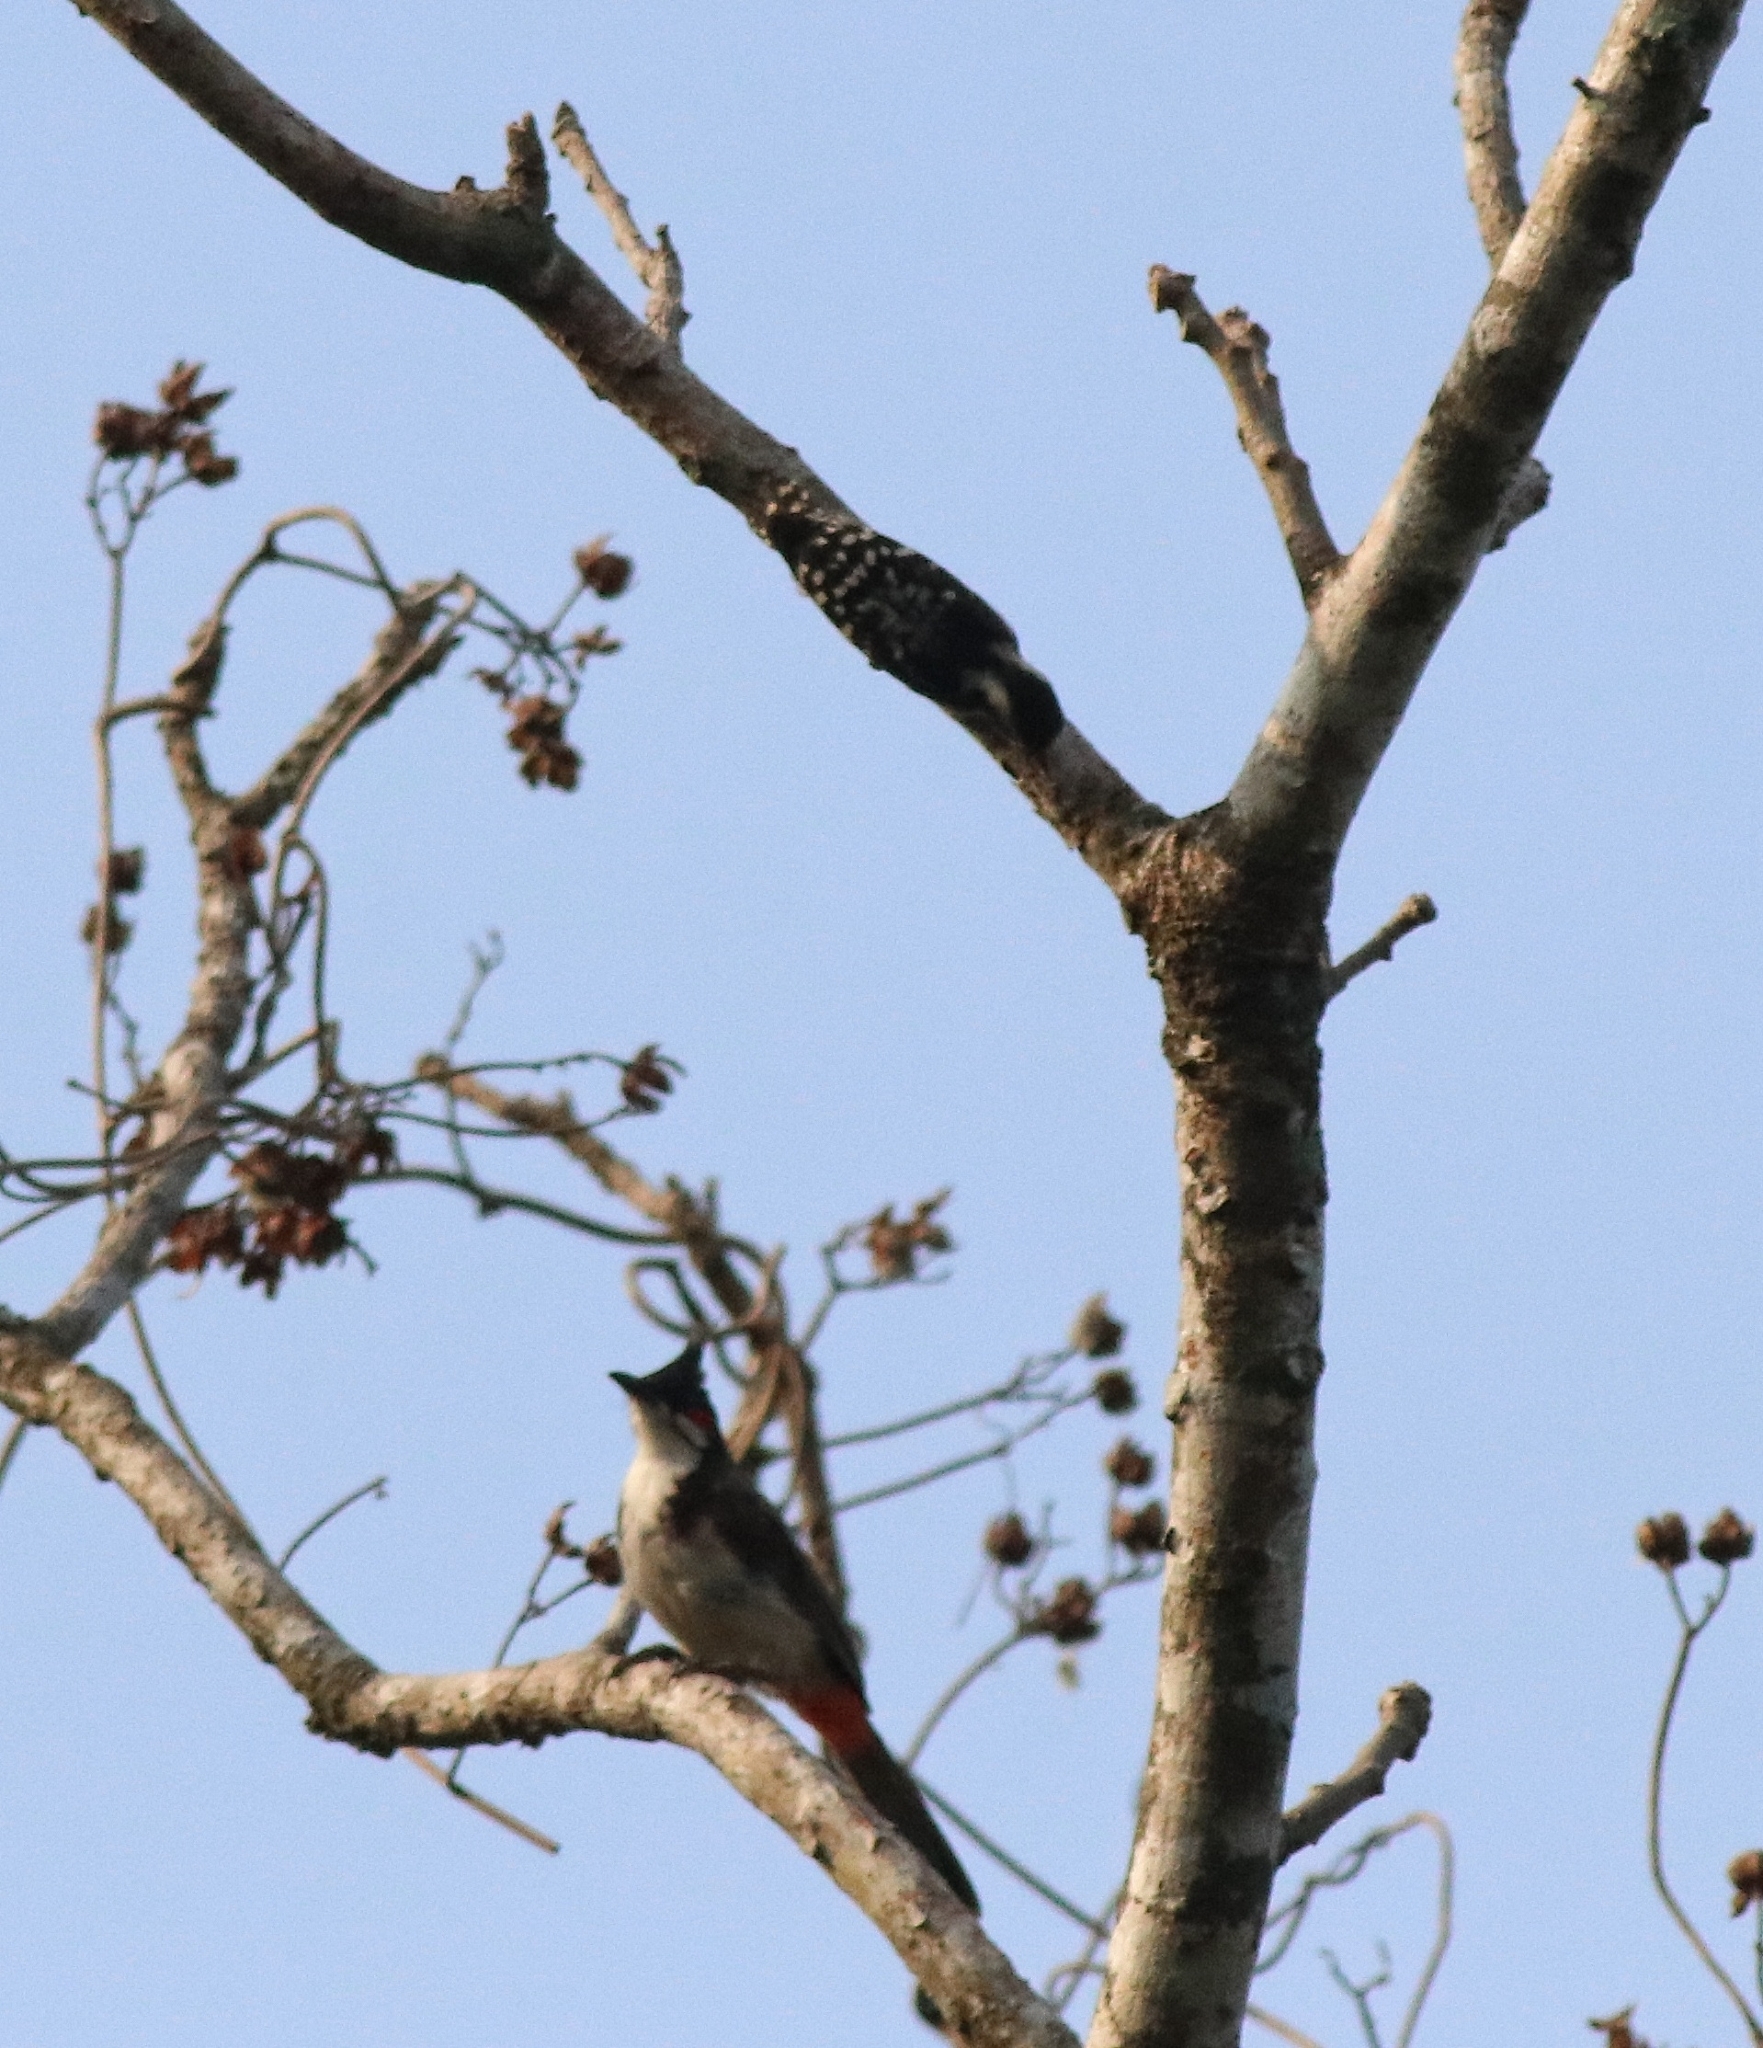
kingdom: Animalia
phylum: Chordata
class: Aves
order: Piciformes
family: Picidae
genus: Yungipicus
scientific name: Yungipicus nanus
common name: Brown-capped pygmy woodpecker
